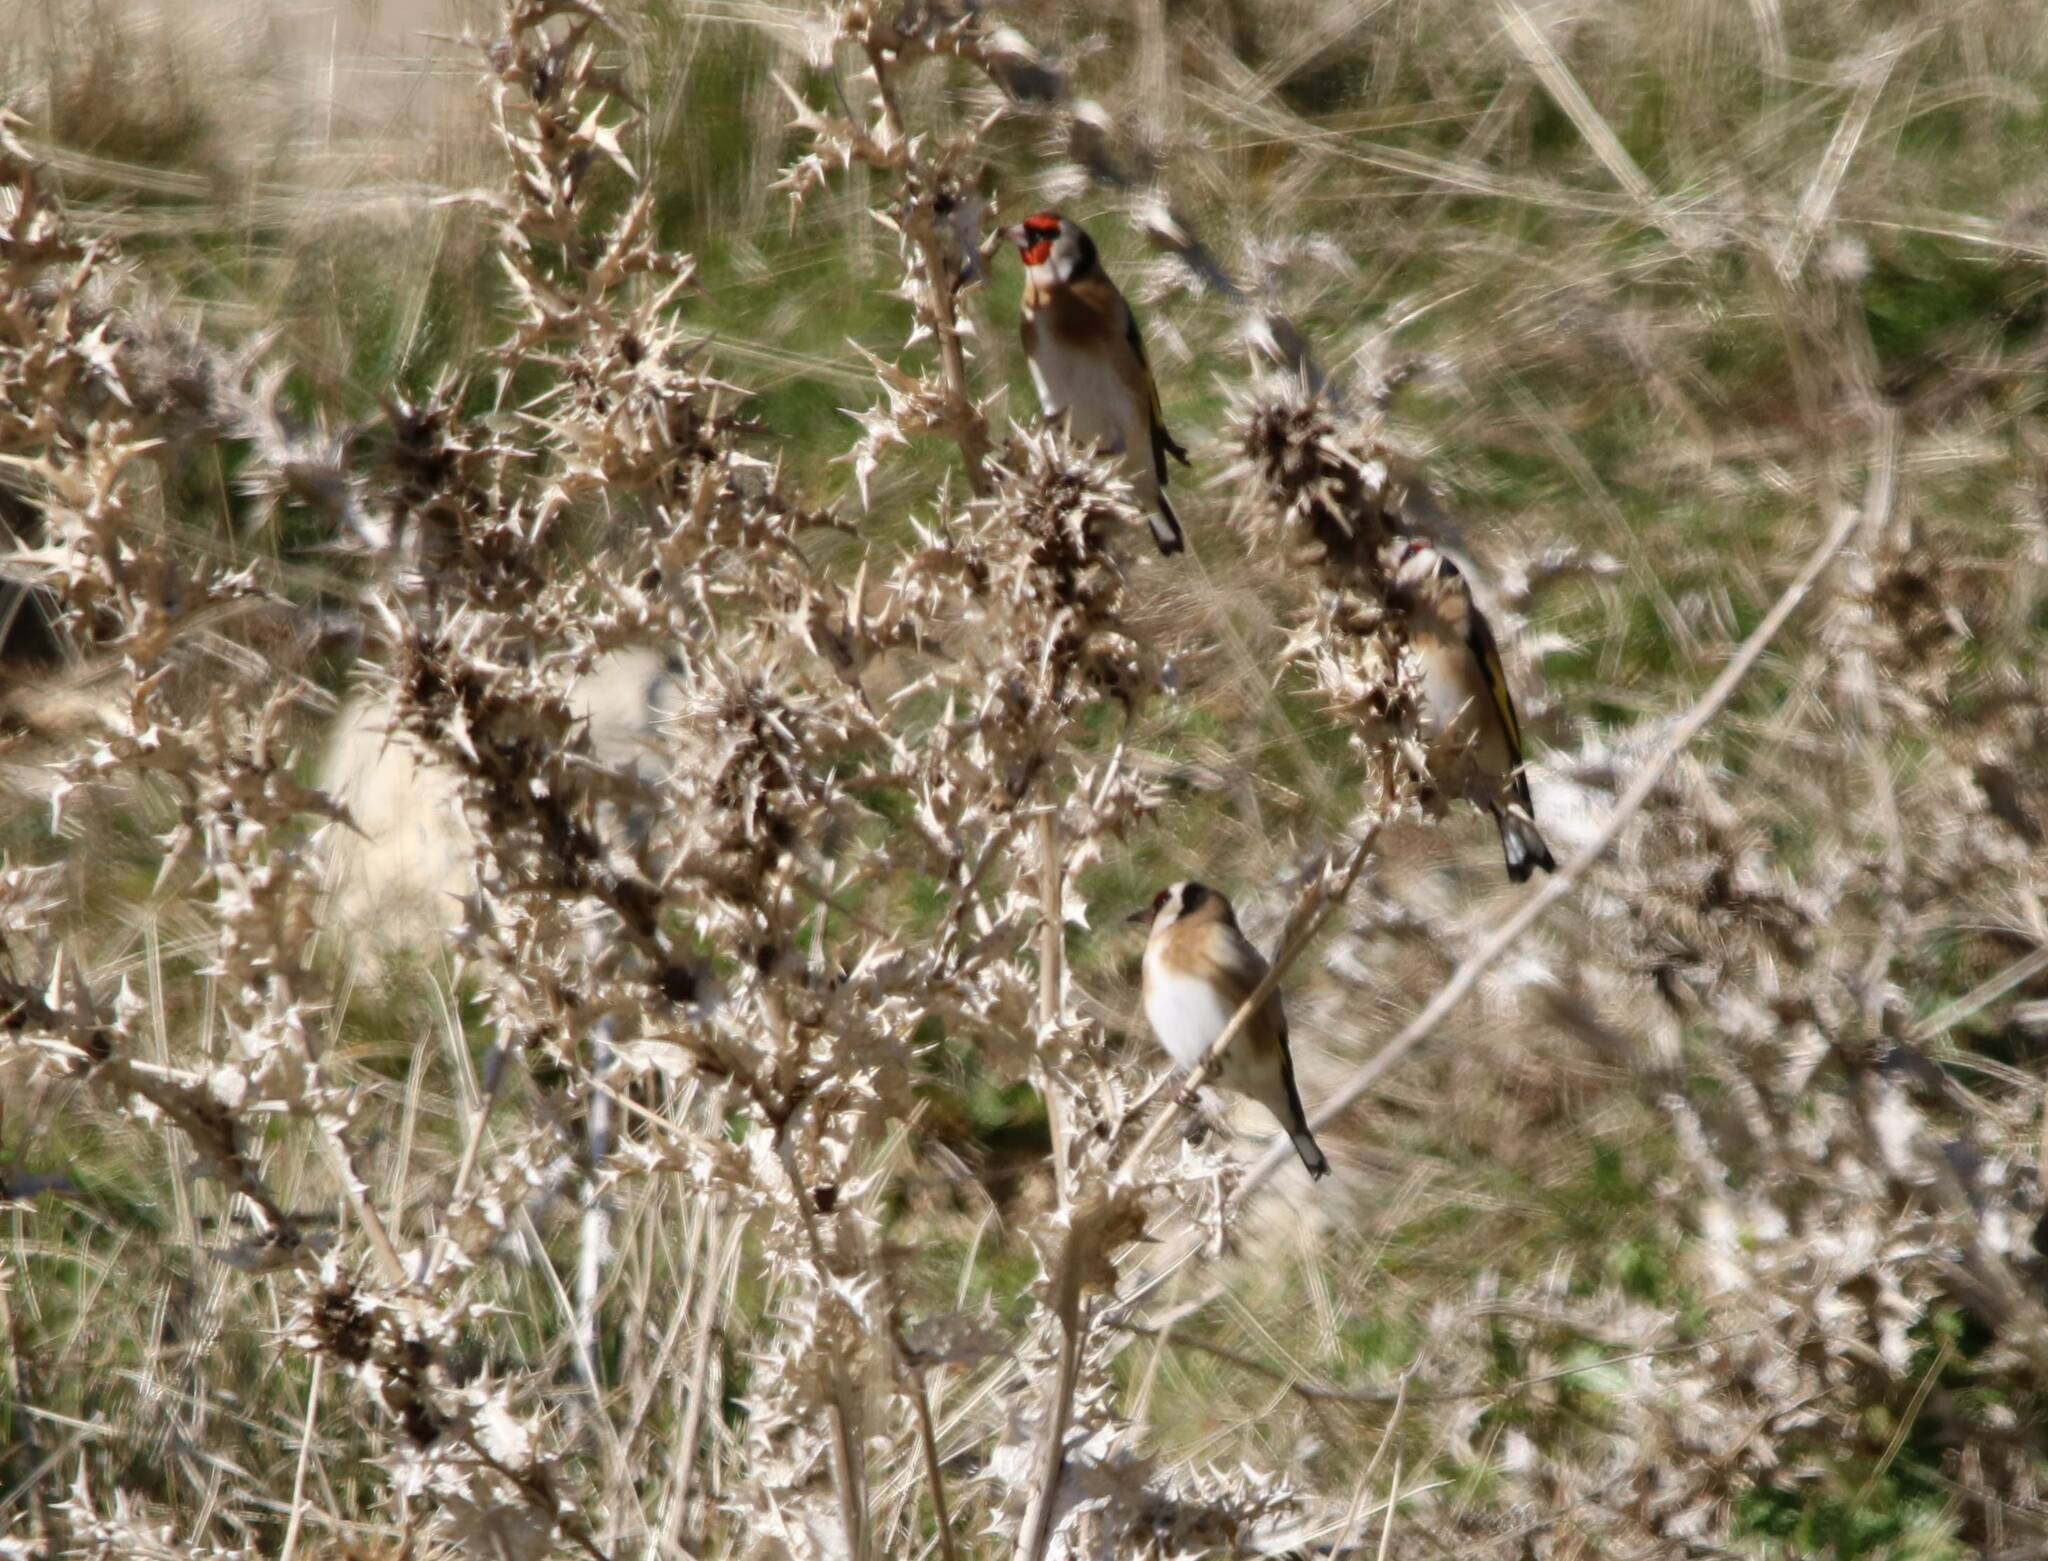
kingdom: Animalia
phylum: Chordata
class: Aves
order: Passeriformes
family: Fringillidae
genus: Carduelis
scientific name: Carduelis carduelis
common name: European goldfinch
